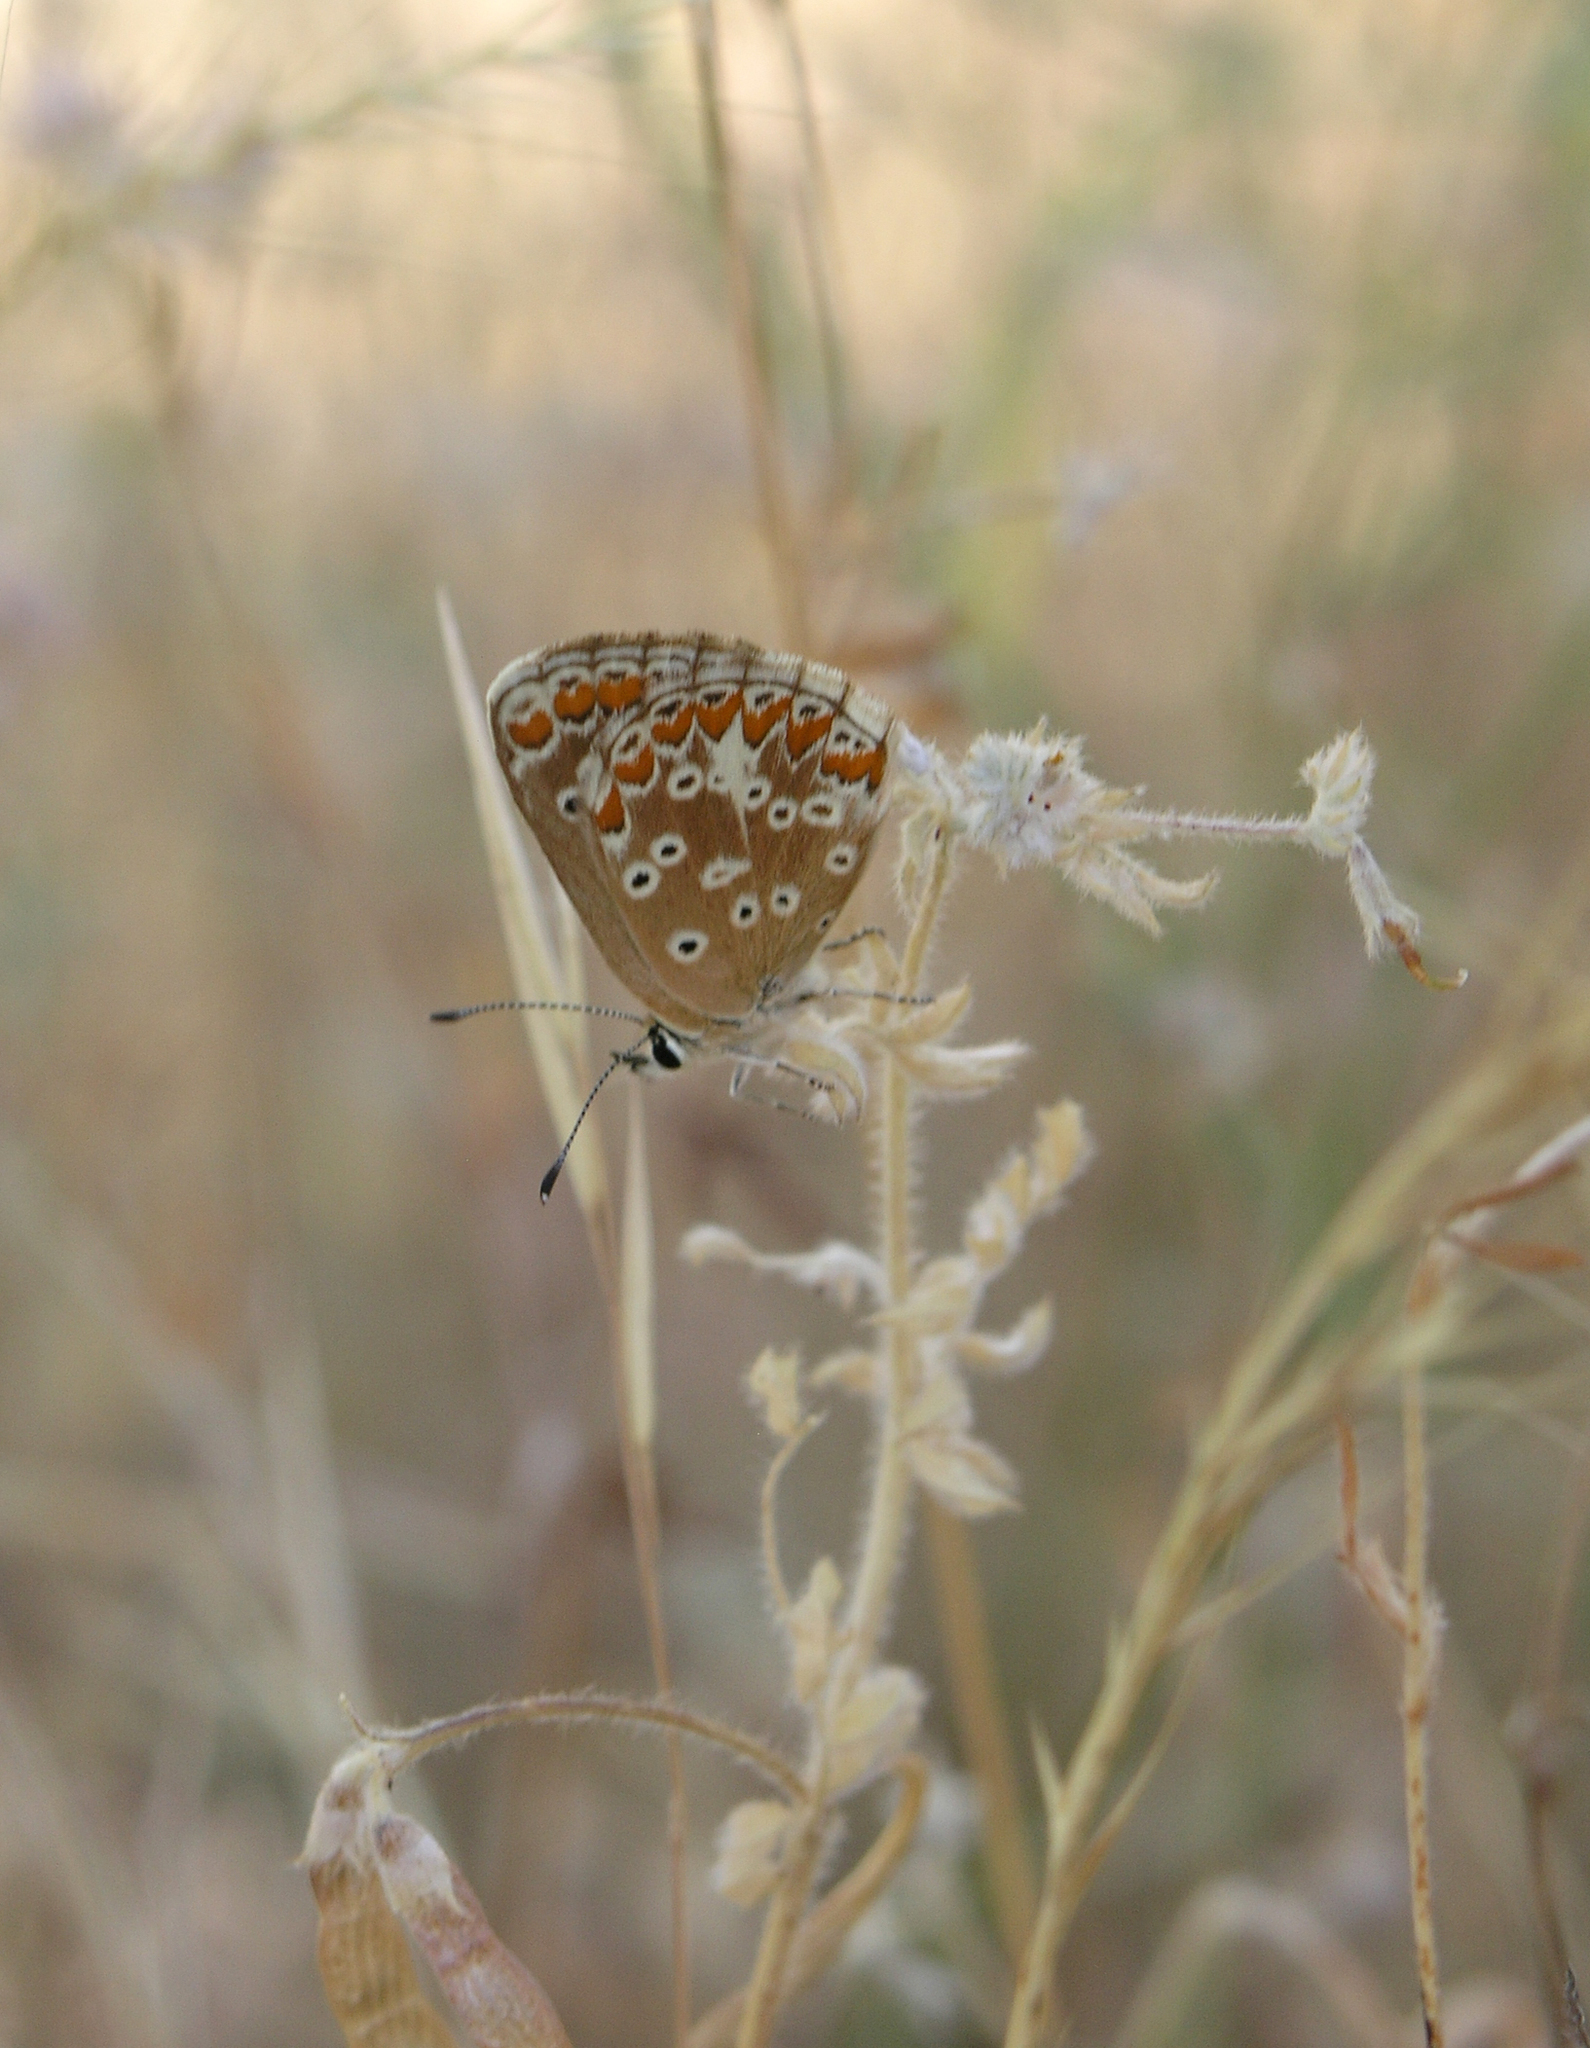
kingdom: Animalia
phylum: Arthropoda
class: Insecta
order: Lepidoptera
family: Lycaenidae
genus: Aricia
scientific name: Aricia cramera
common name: Eschscholtz´s brown  argus
